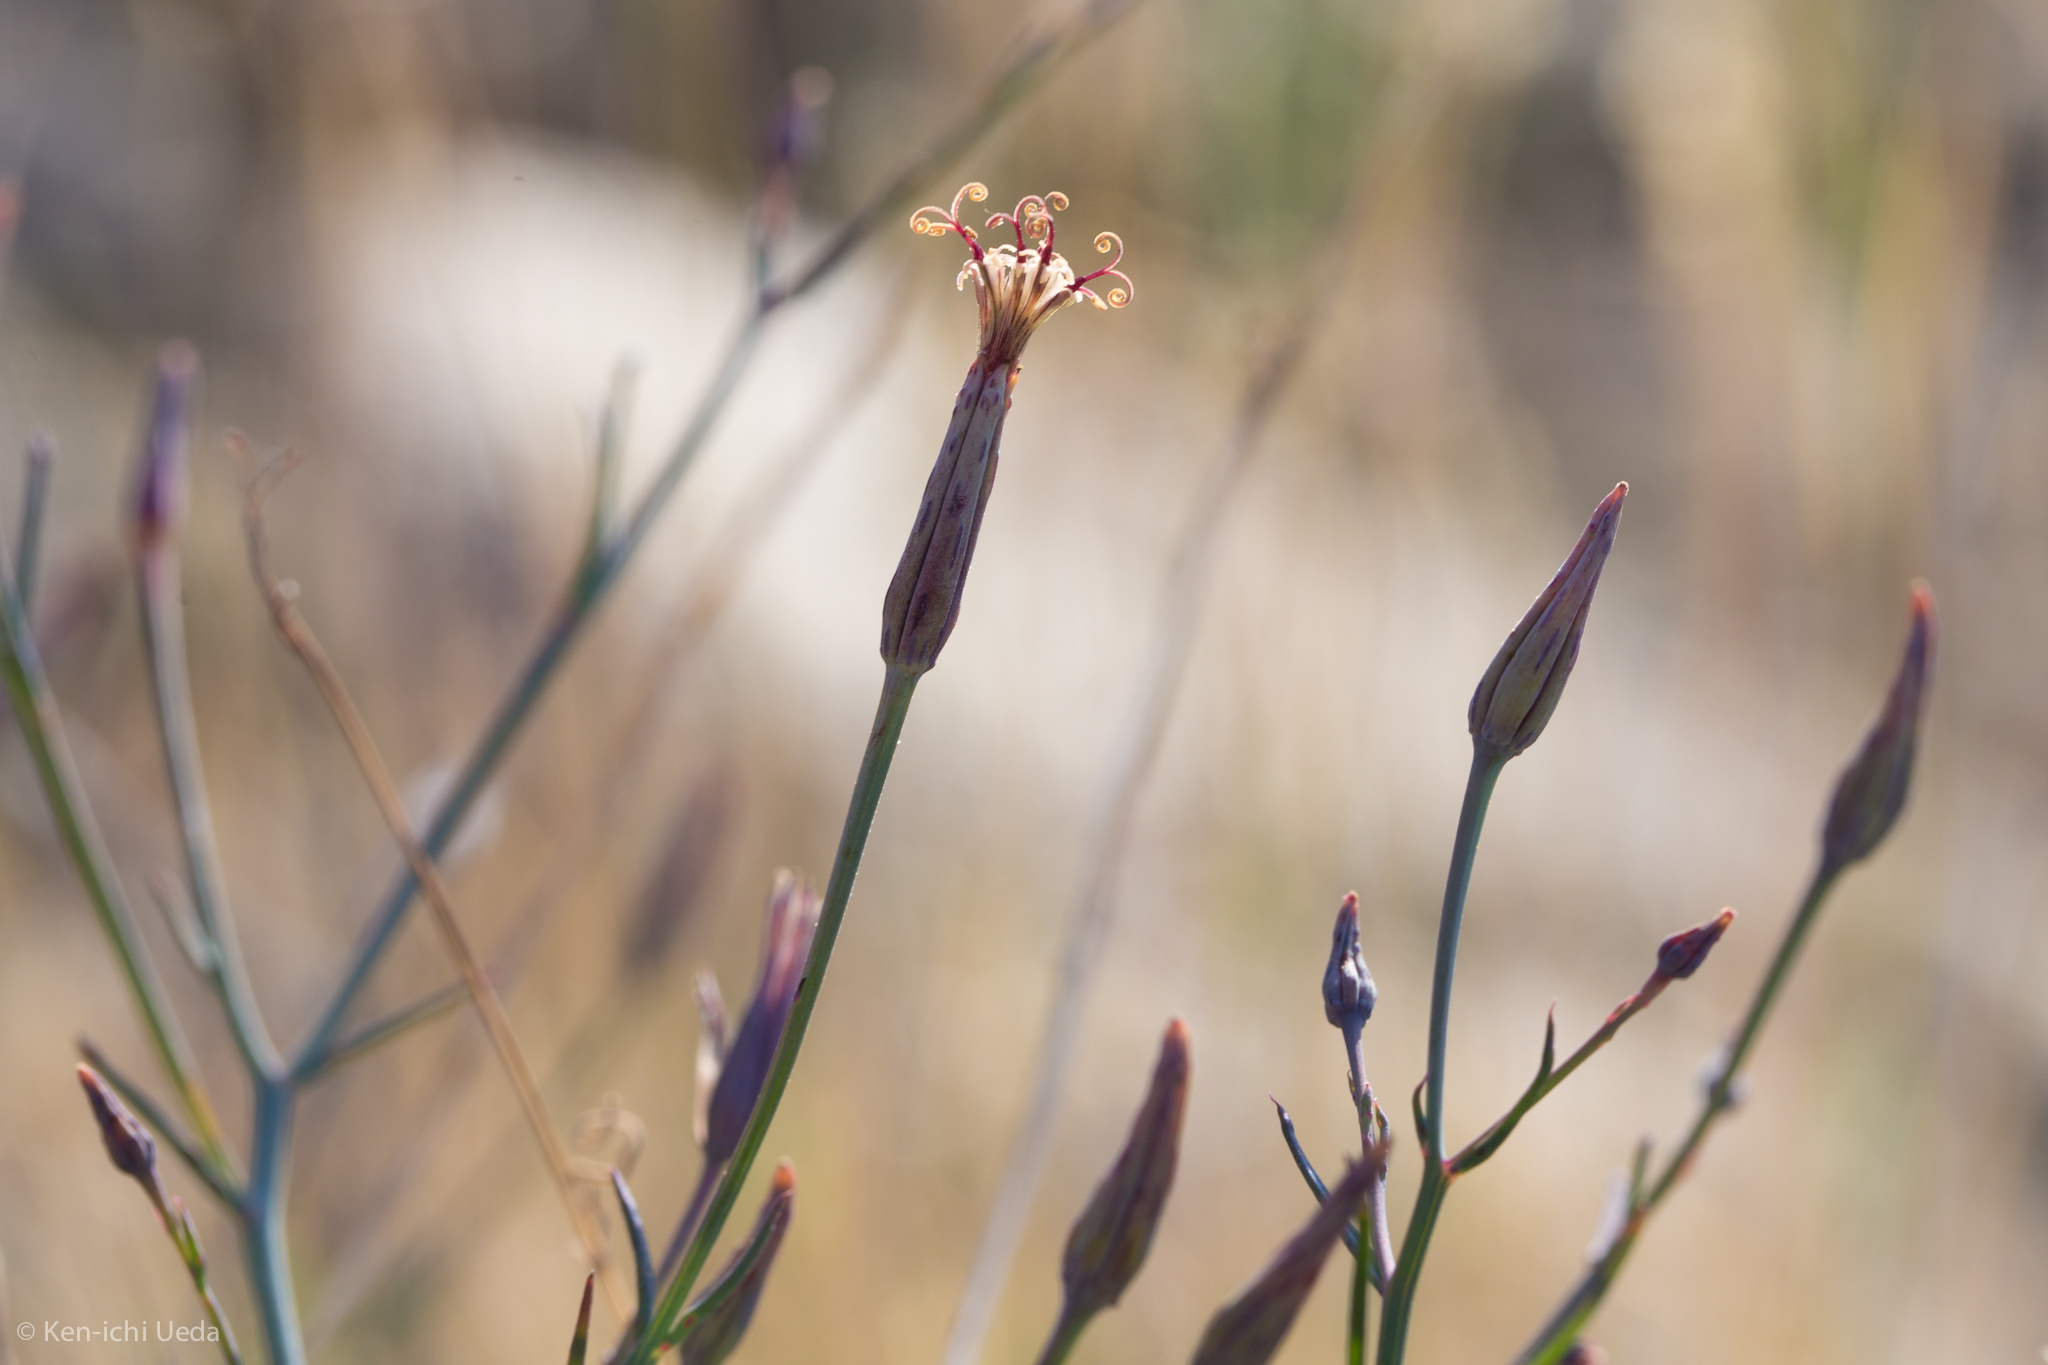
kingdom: Plantae
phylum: Tracheophyta
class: Magnoliopsida
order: Asterales
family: Asteraceae
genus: Porophyllum
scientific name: Porophyllum gracile
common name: Odora
